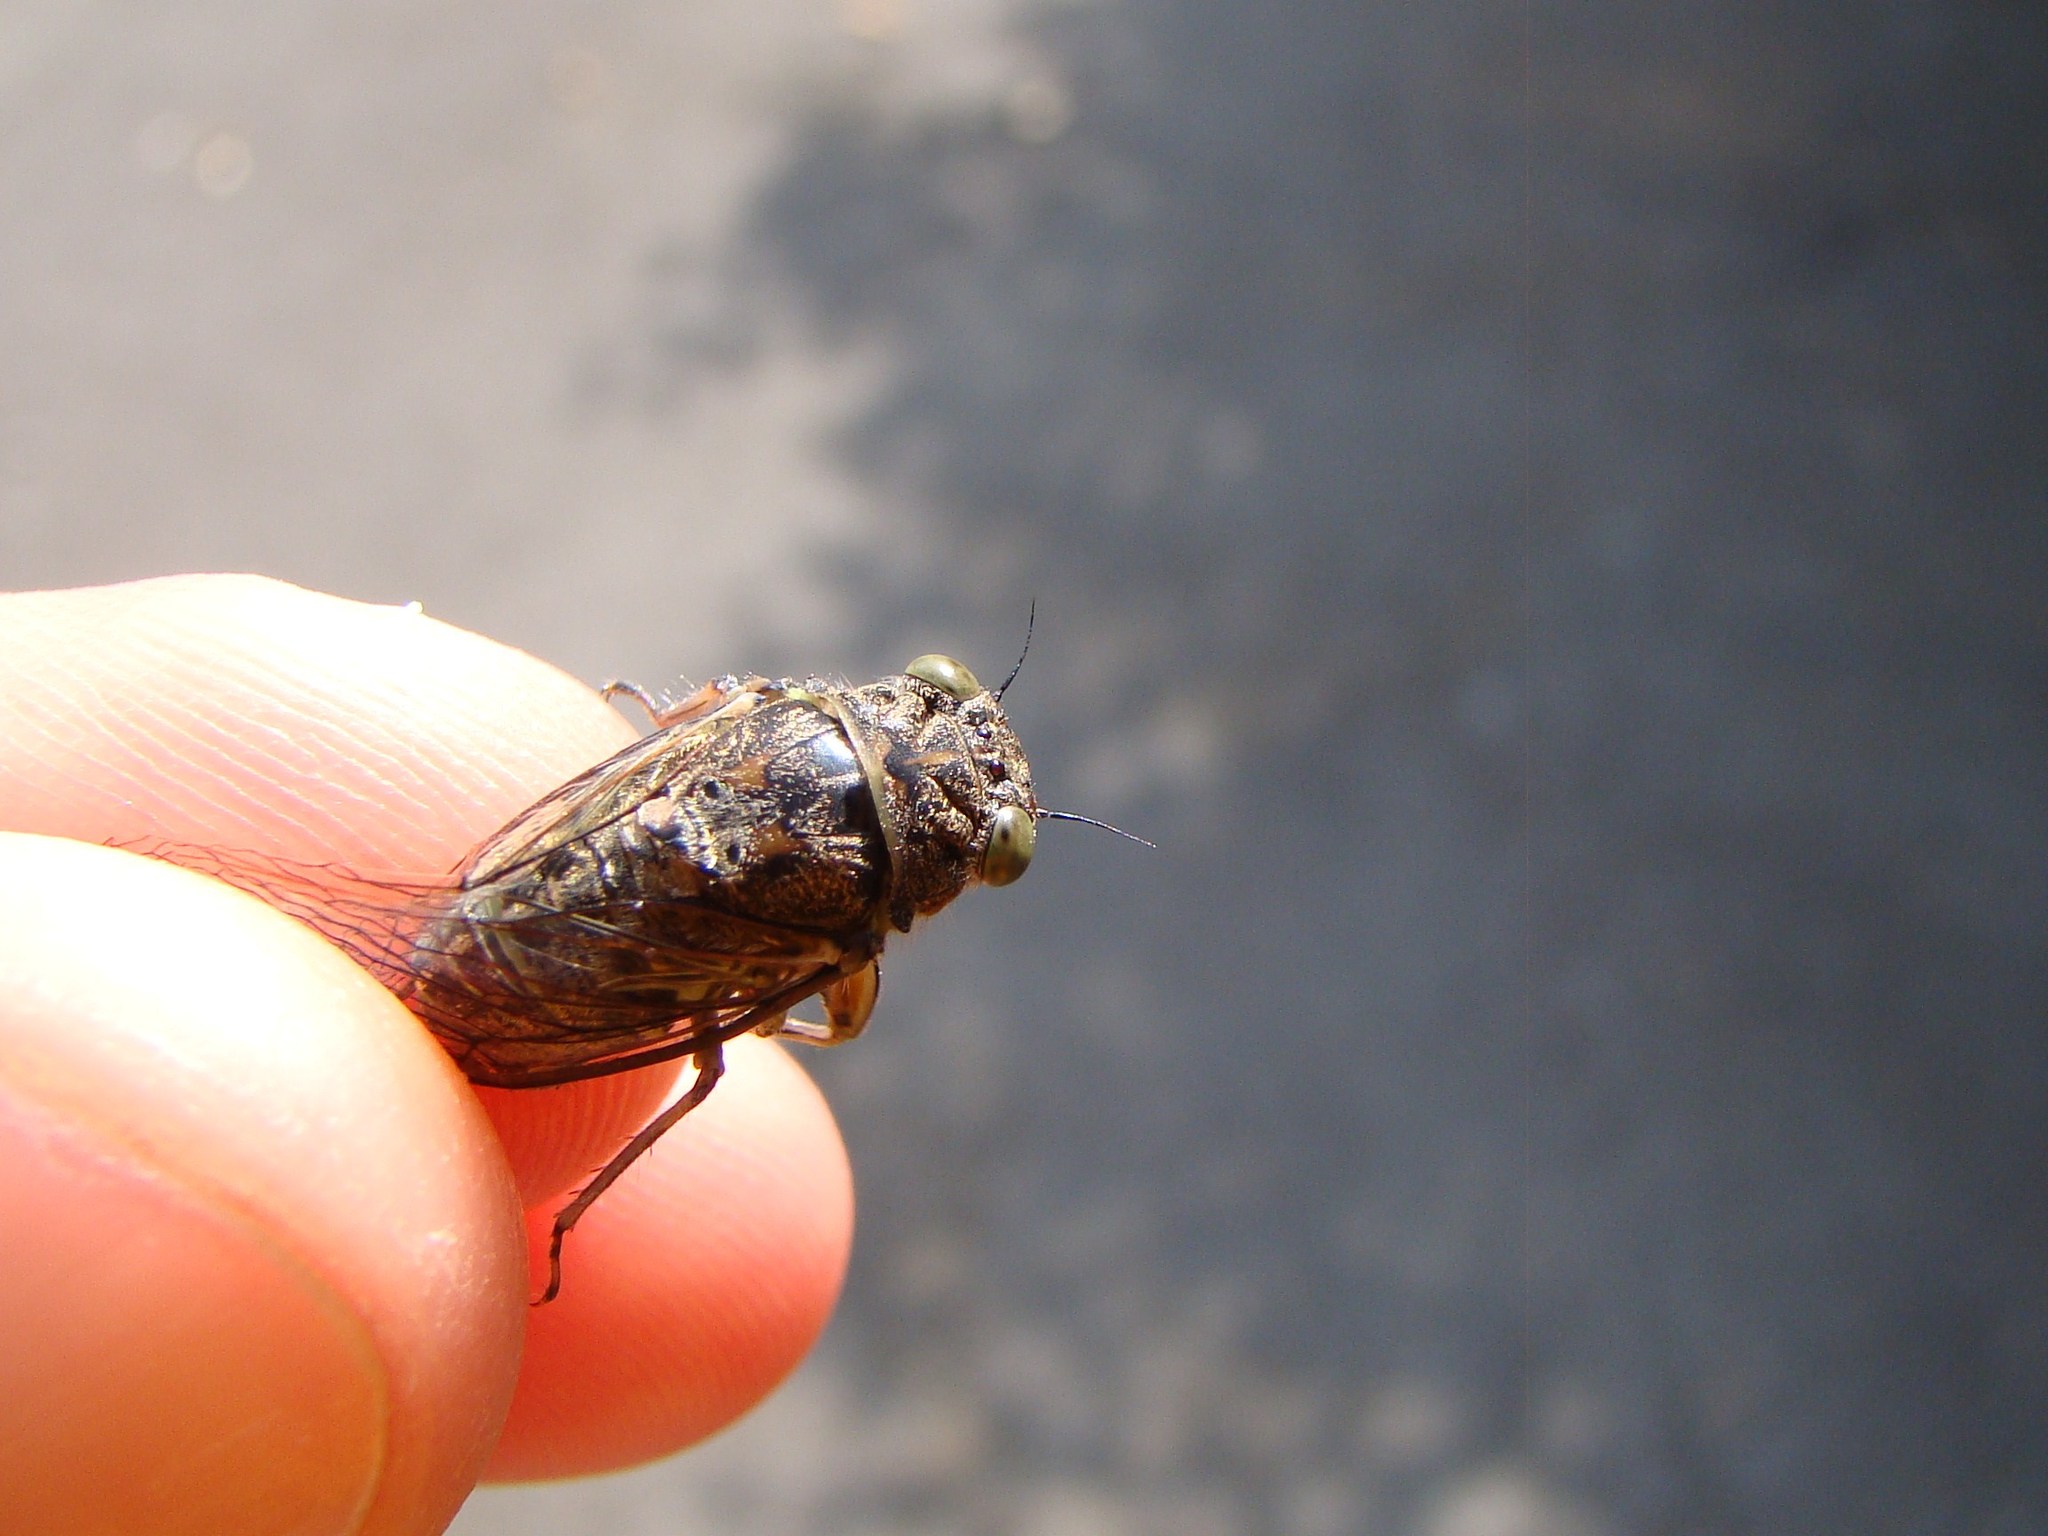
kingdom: Animalia
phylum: Arthropoda
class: Insecta
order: Hemiptera
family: Cicadidae
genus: Notopsalta
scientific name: Notopsalta sericea
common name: Clay bank cicada
